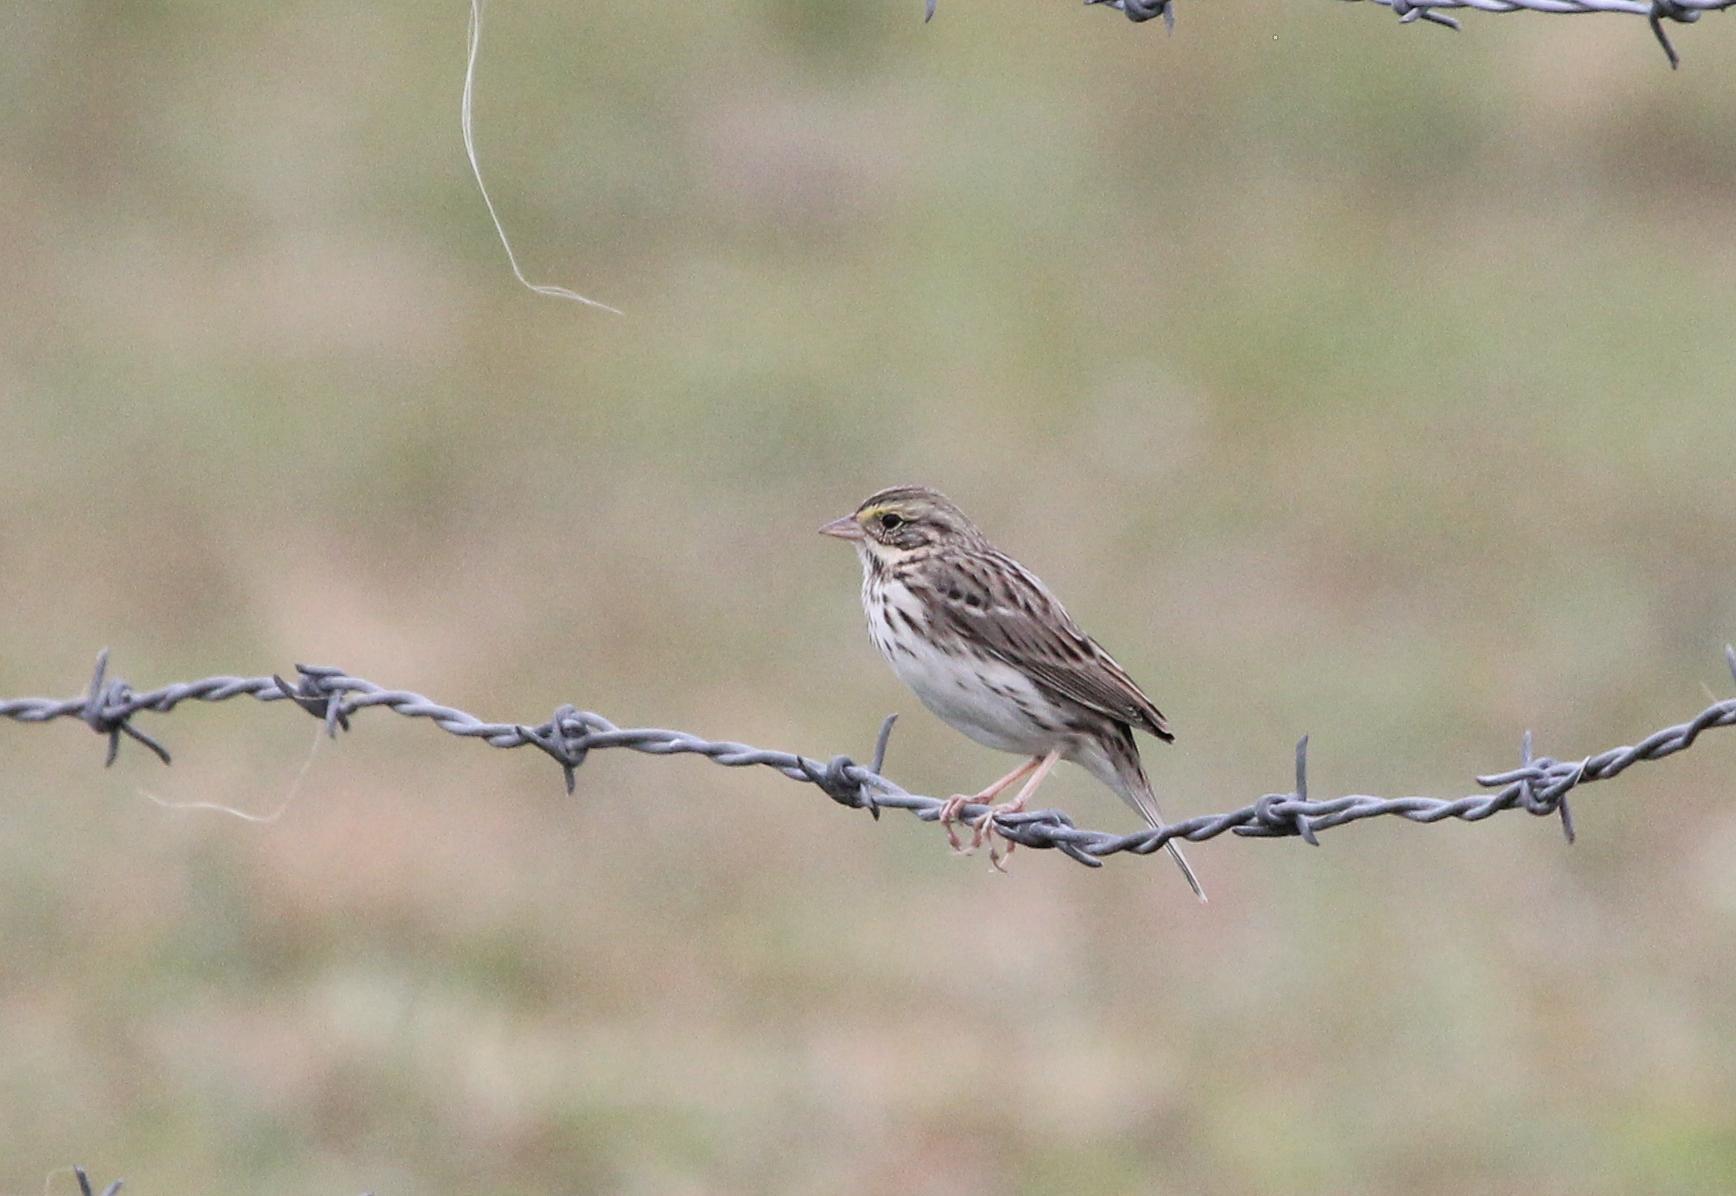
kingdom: Animalia
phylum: Chordata
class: Aves
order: Passeriformes
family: Passerellidae
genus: Passerculus
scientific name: Passerculus sandwichensis
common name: Savannah sparrow
